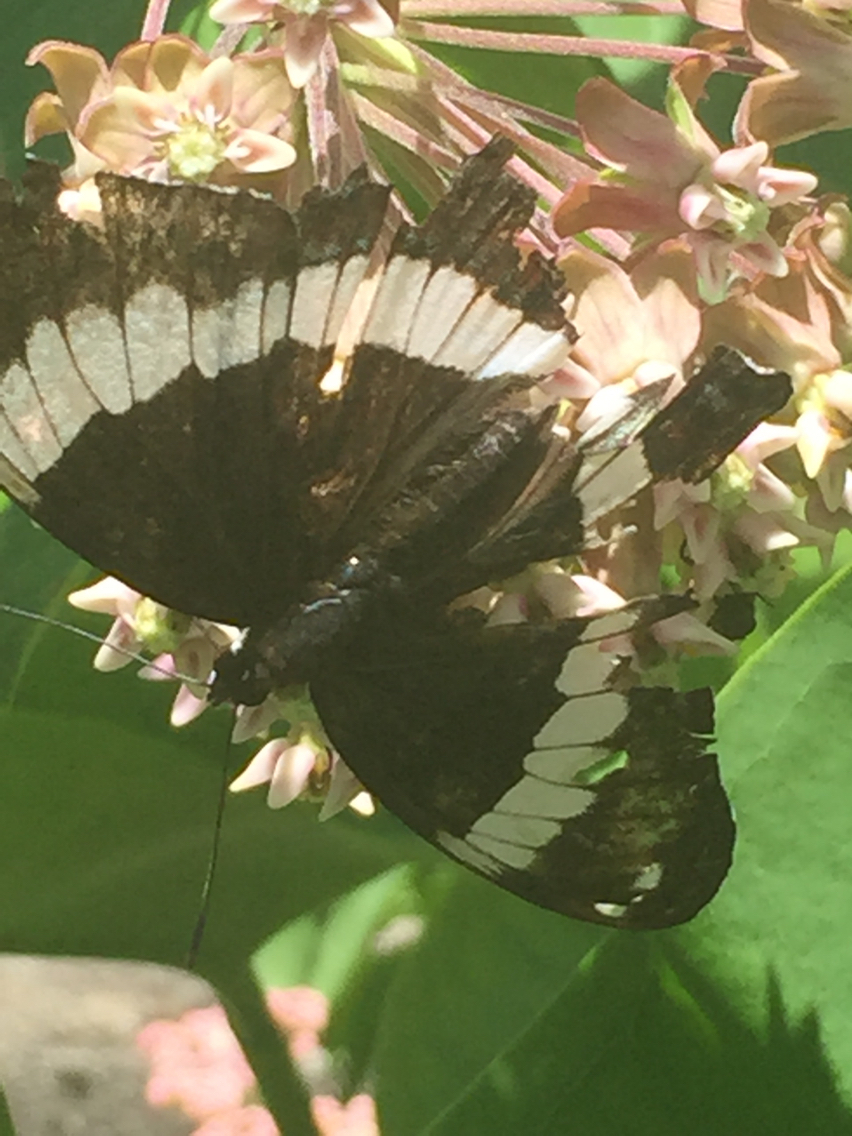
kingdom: Animalia
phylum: Arthropoda
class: Insecta
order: Lepidoptera
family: Nymphalidae
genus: Limenitis
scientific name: Limenitis arthemis
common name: Red-spotted admiral
